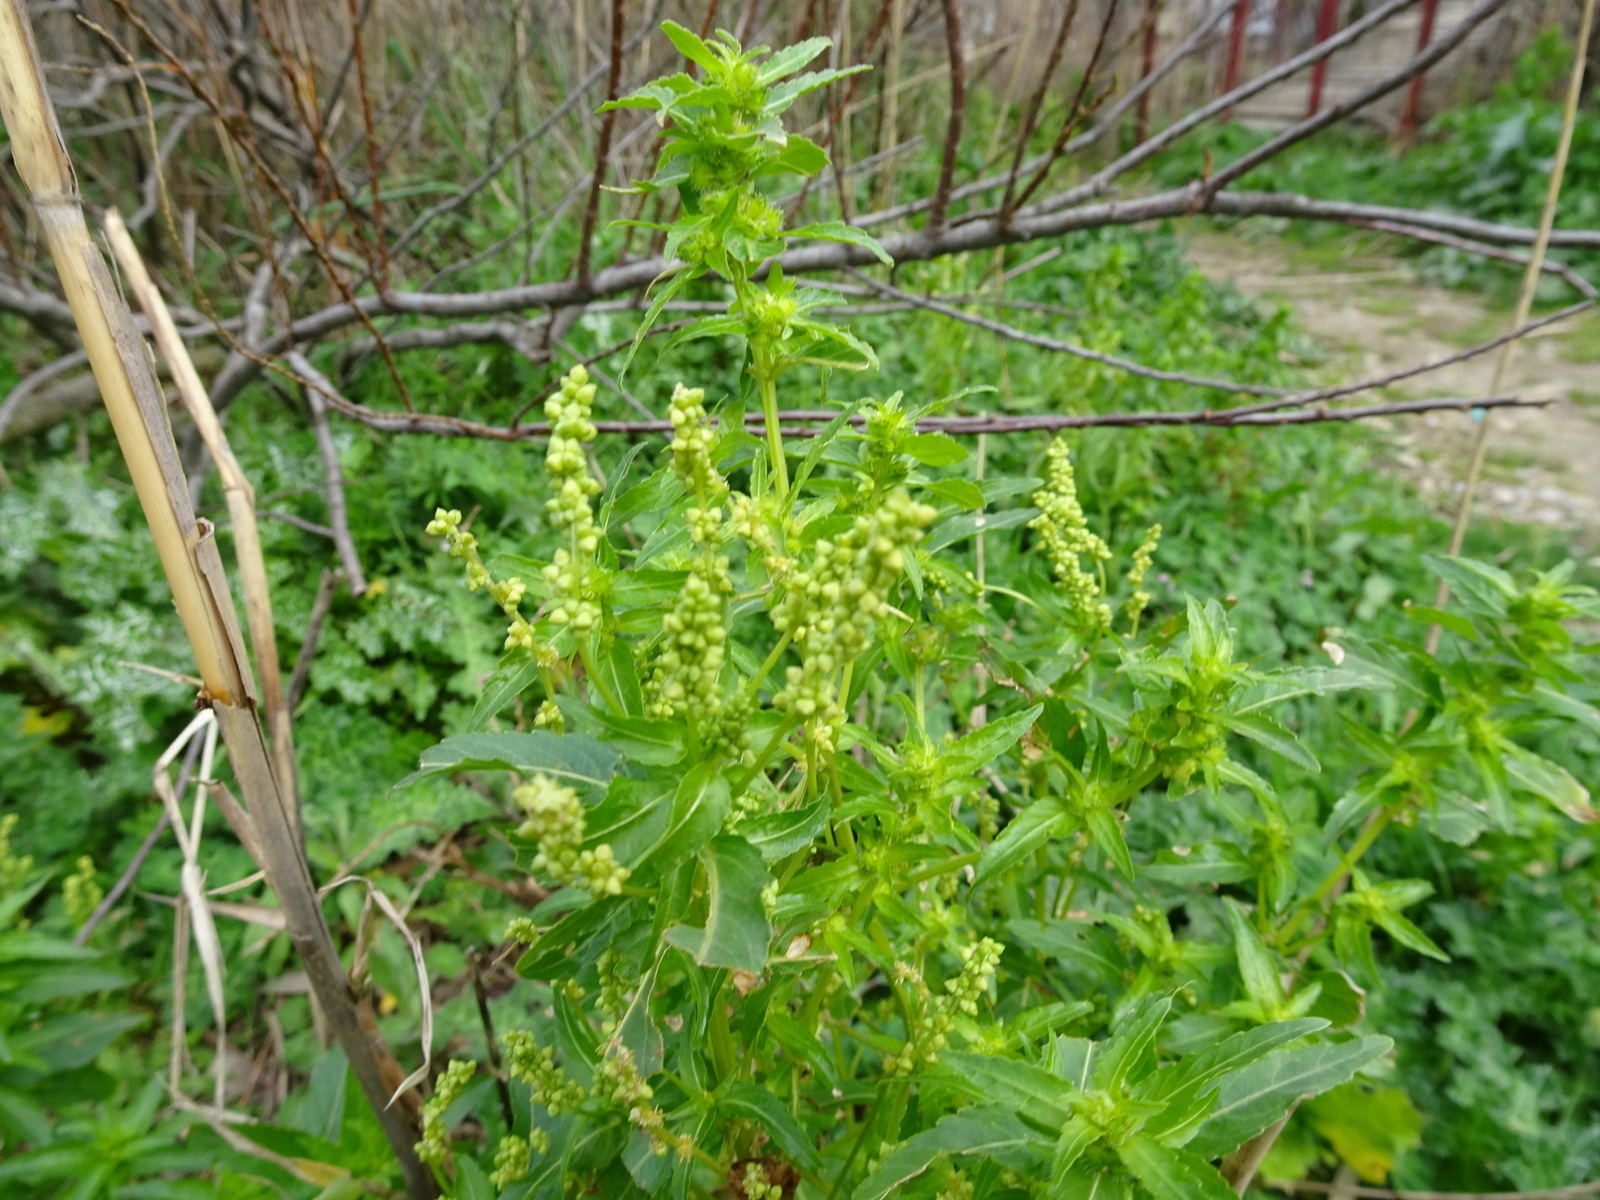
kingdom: Plantae
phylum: Tracheophyta
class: Magnoliopsida
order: Malpighiales
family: Euphorbiaceae
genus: Mercurialis
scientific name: Mercurialis annua
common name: Annual mercury
